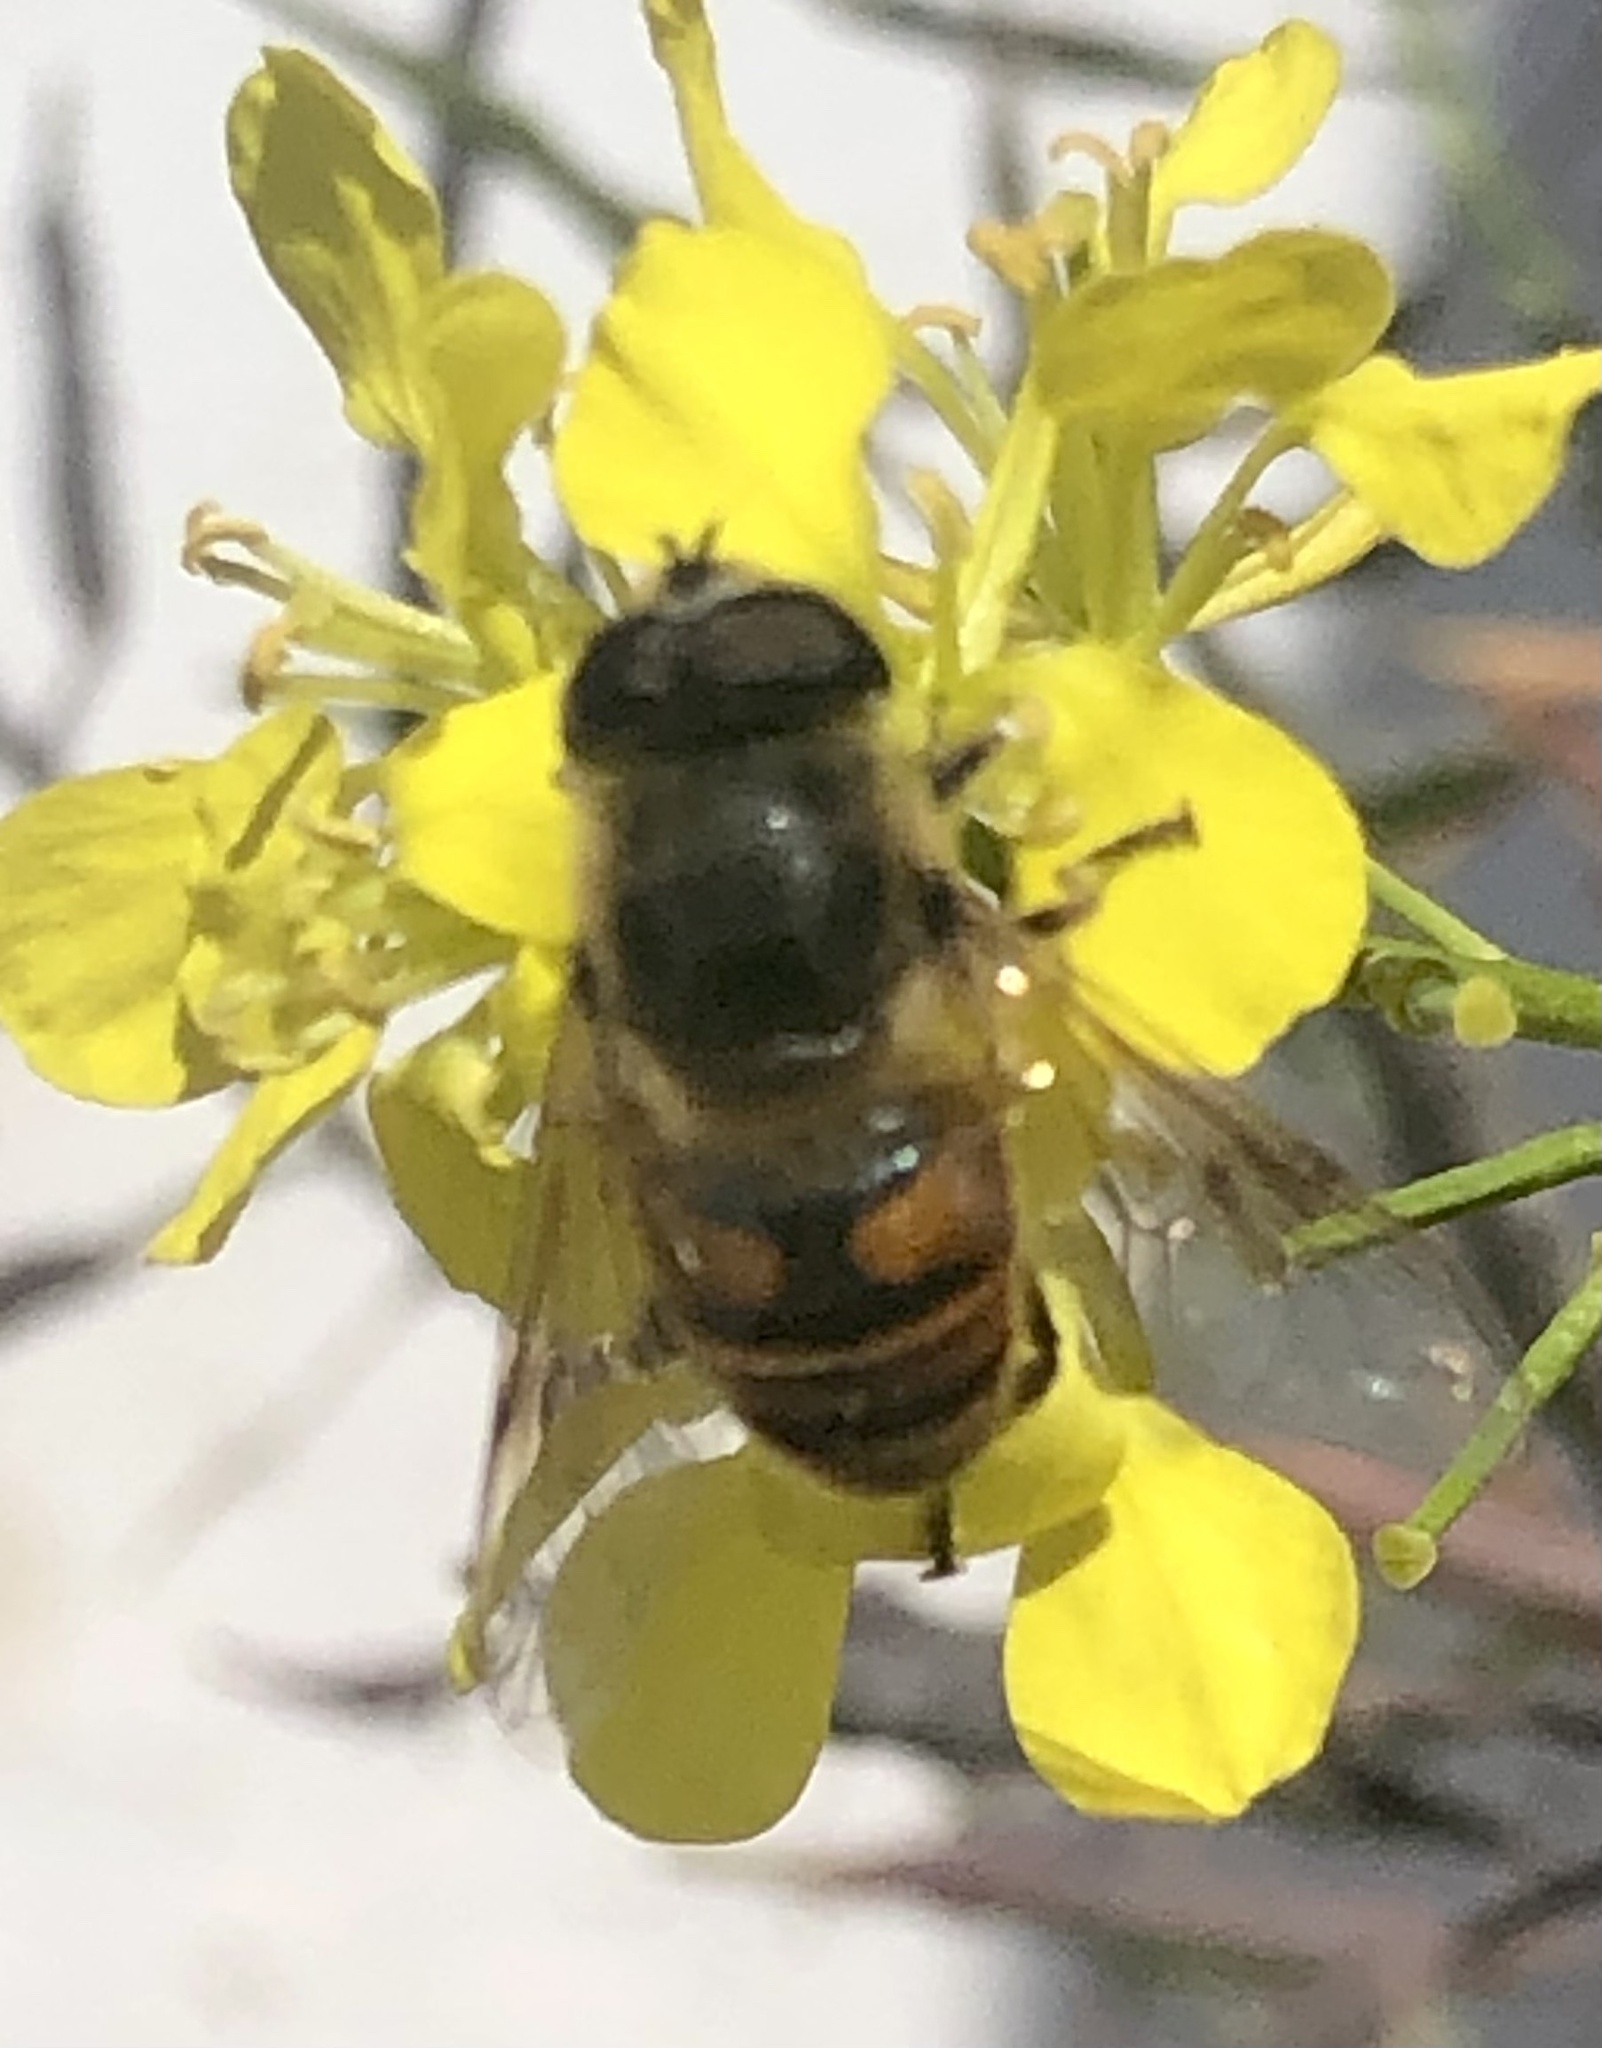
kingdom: Animalia
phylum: Arthropoda
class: Insecta
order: Diptera
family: Syrphidae
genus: Eristalis
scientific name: Eristalis tenax
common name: Drone fly
